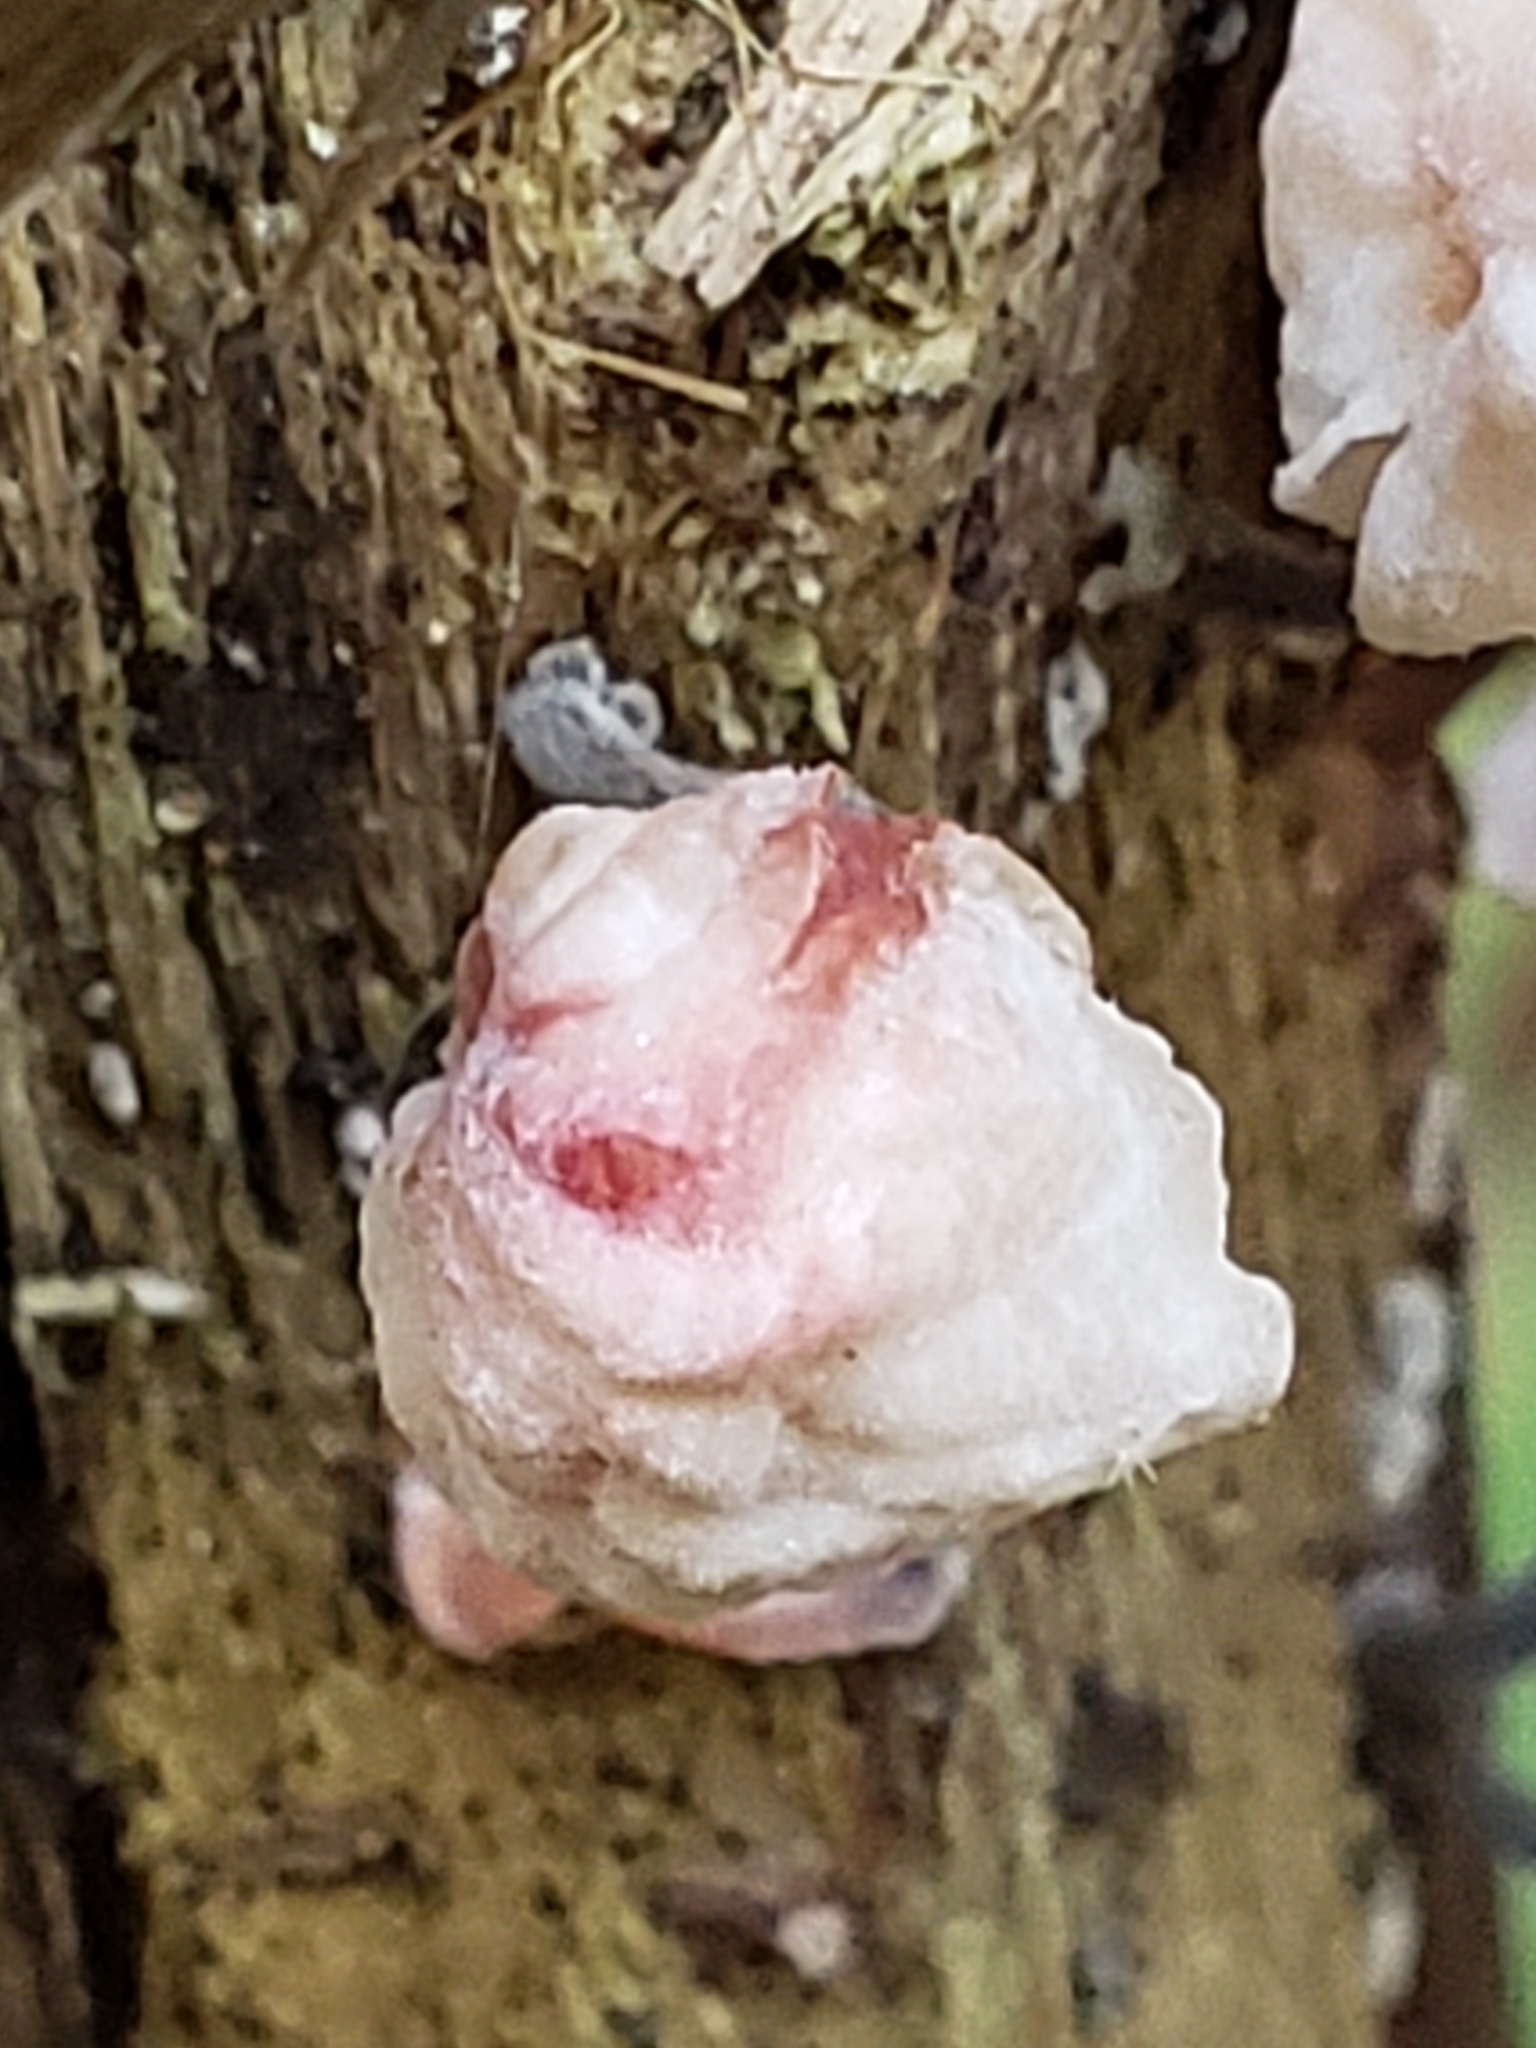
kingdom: Fungi
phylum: Basidiomycota
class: Agaricomycetes
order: Agaricales
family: Omphalotaceae
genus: Marasmiellus
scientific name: Marasmiellus candidus
